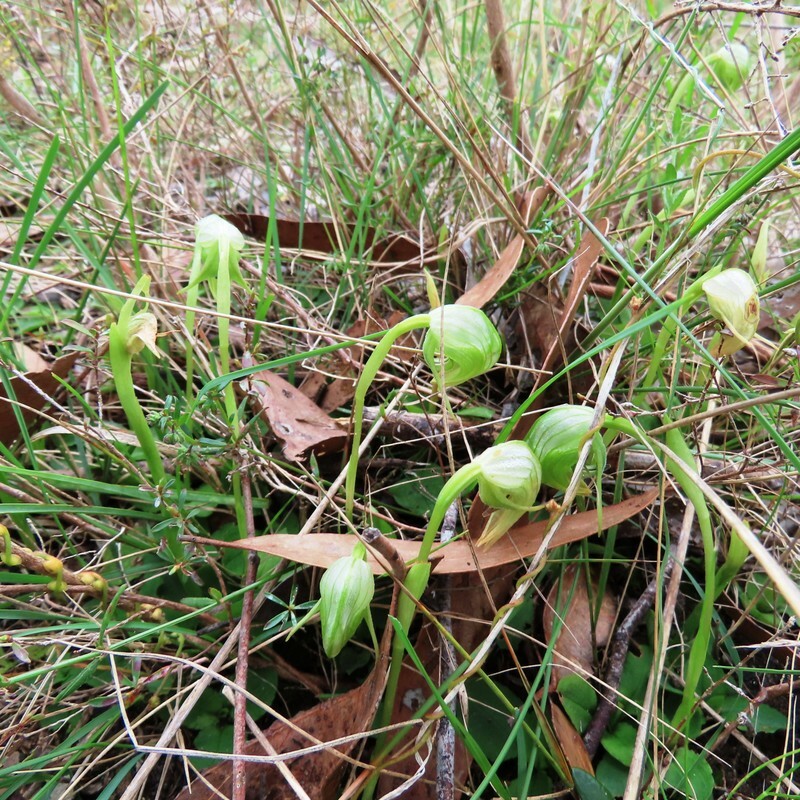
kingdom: Plantae
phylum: Tracheophyta
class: Liliopsida
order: Asparagales
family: Orchidaceae
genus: Pterostylis
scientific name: Pterostylis nutans
